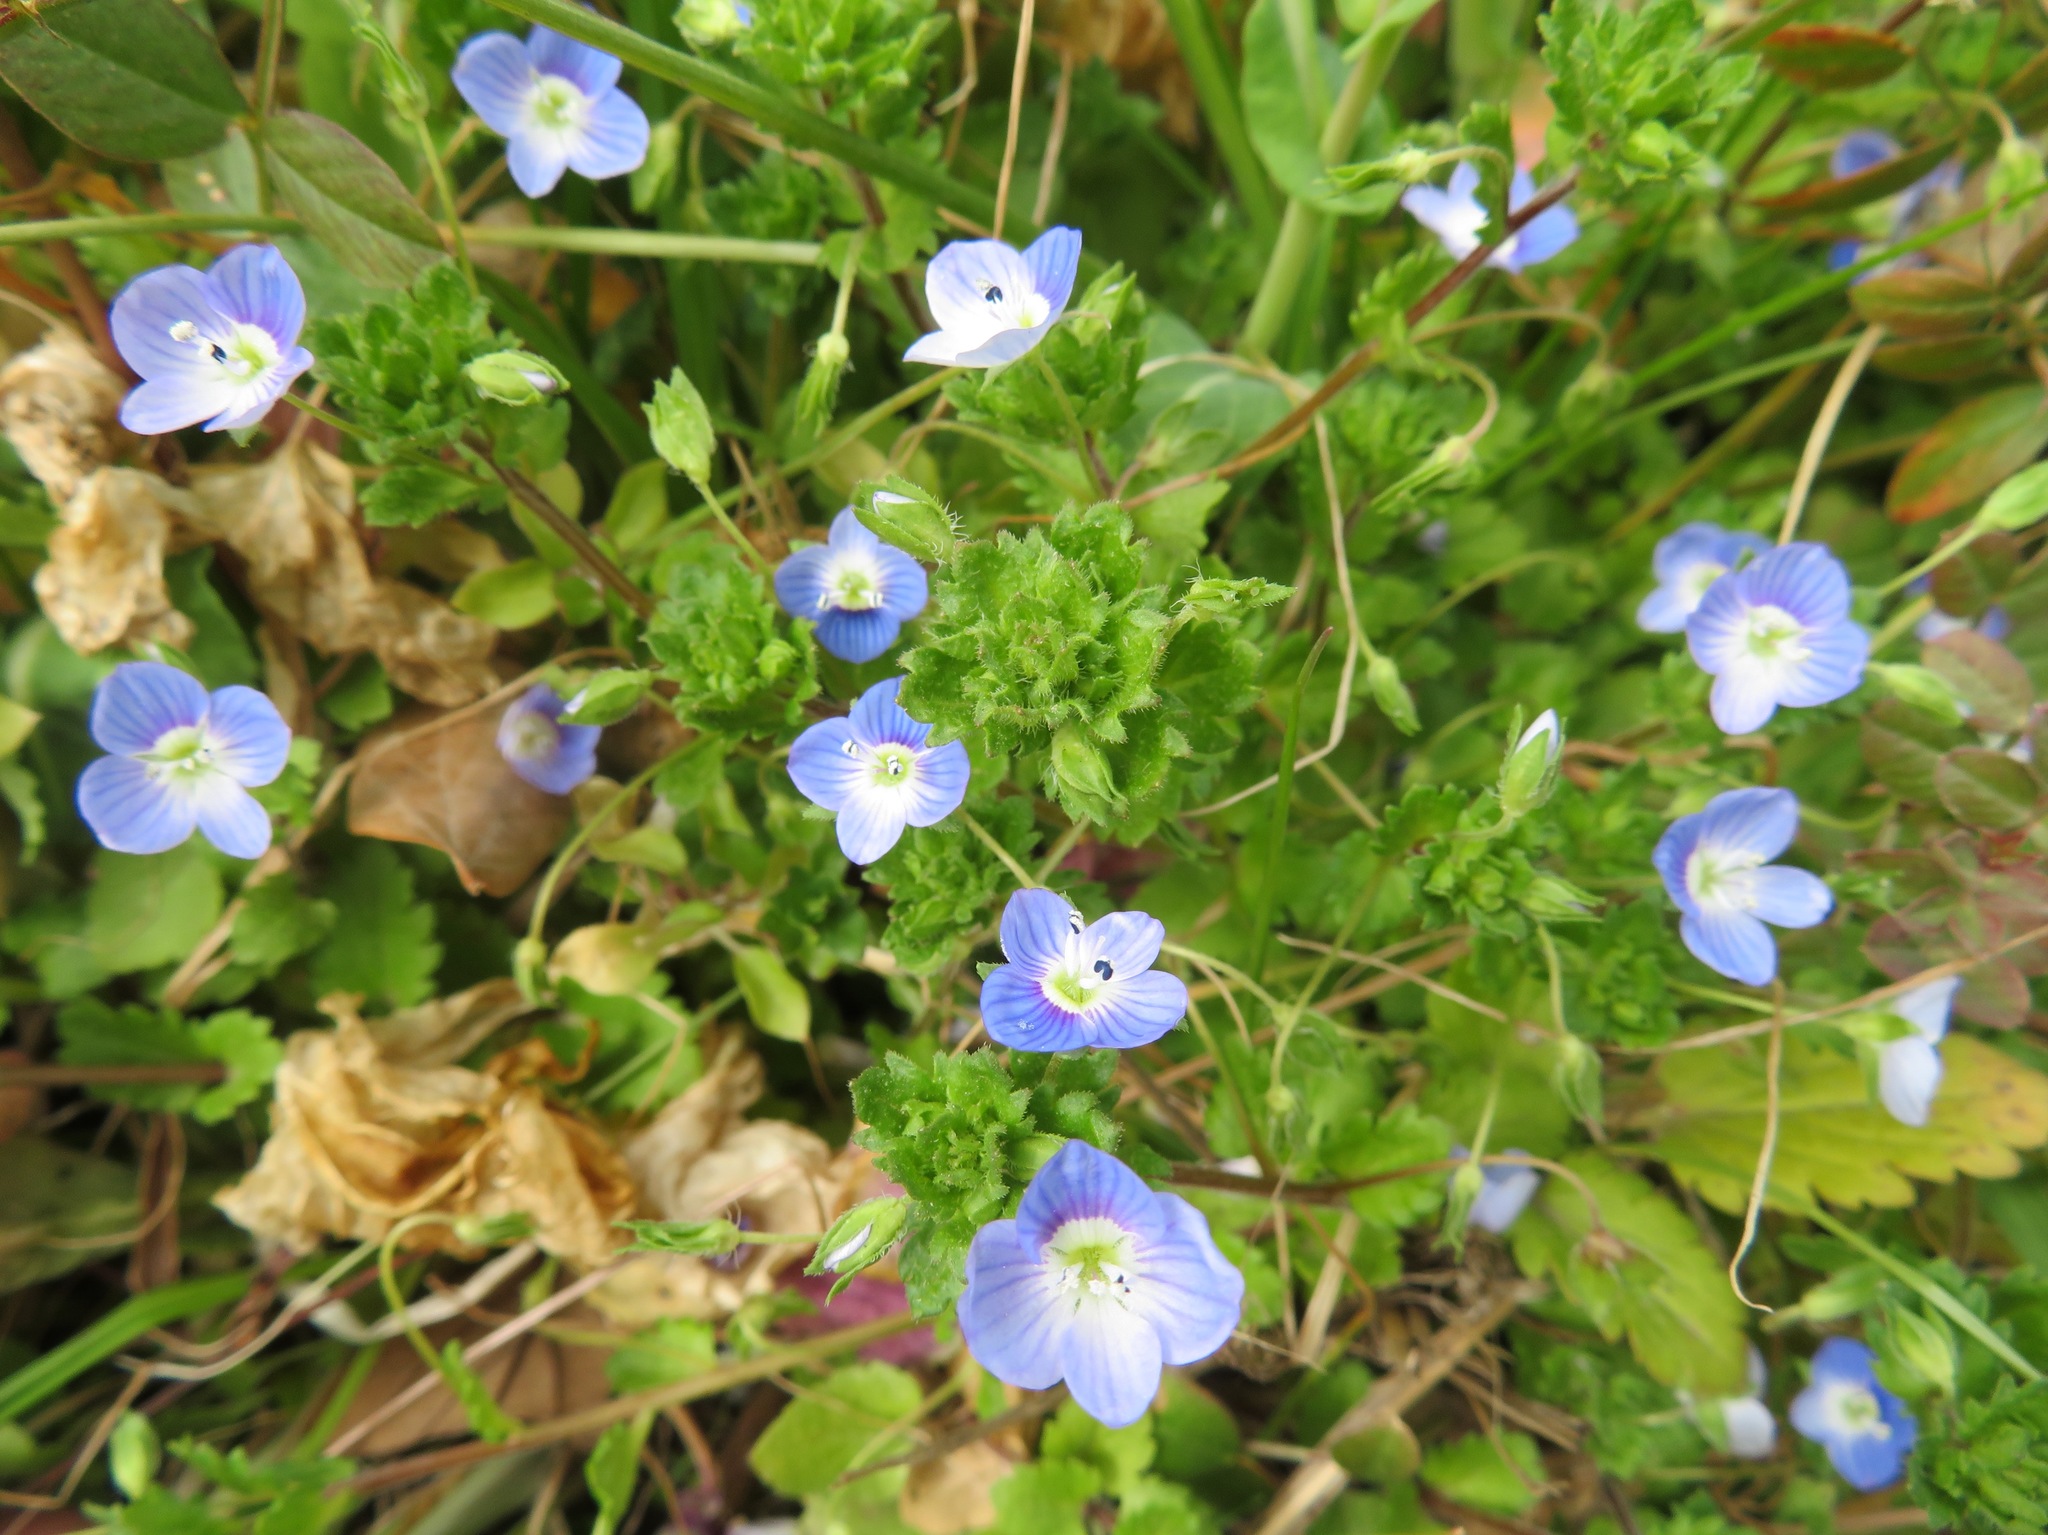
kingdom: Plantae
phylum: Tracheophyta
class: Magnoliopsida
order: Lamiales
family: Plantaginaceae
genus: Veronica
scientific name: Veronica persica
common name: Common field-speedwell
